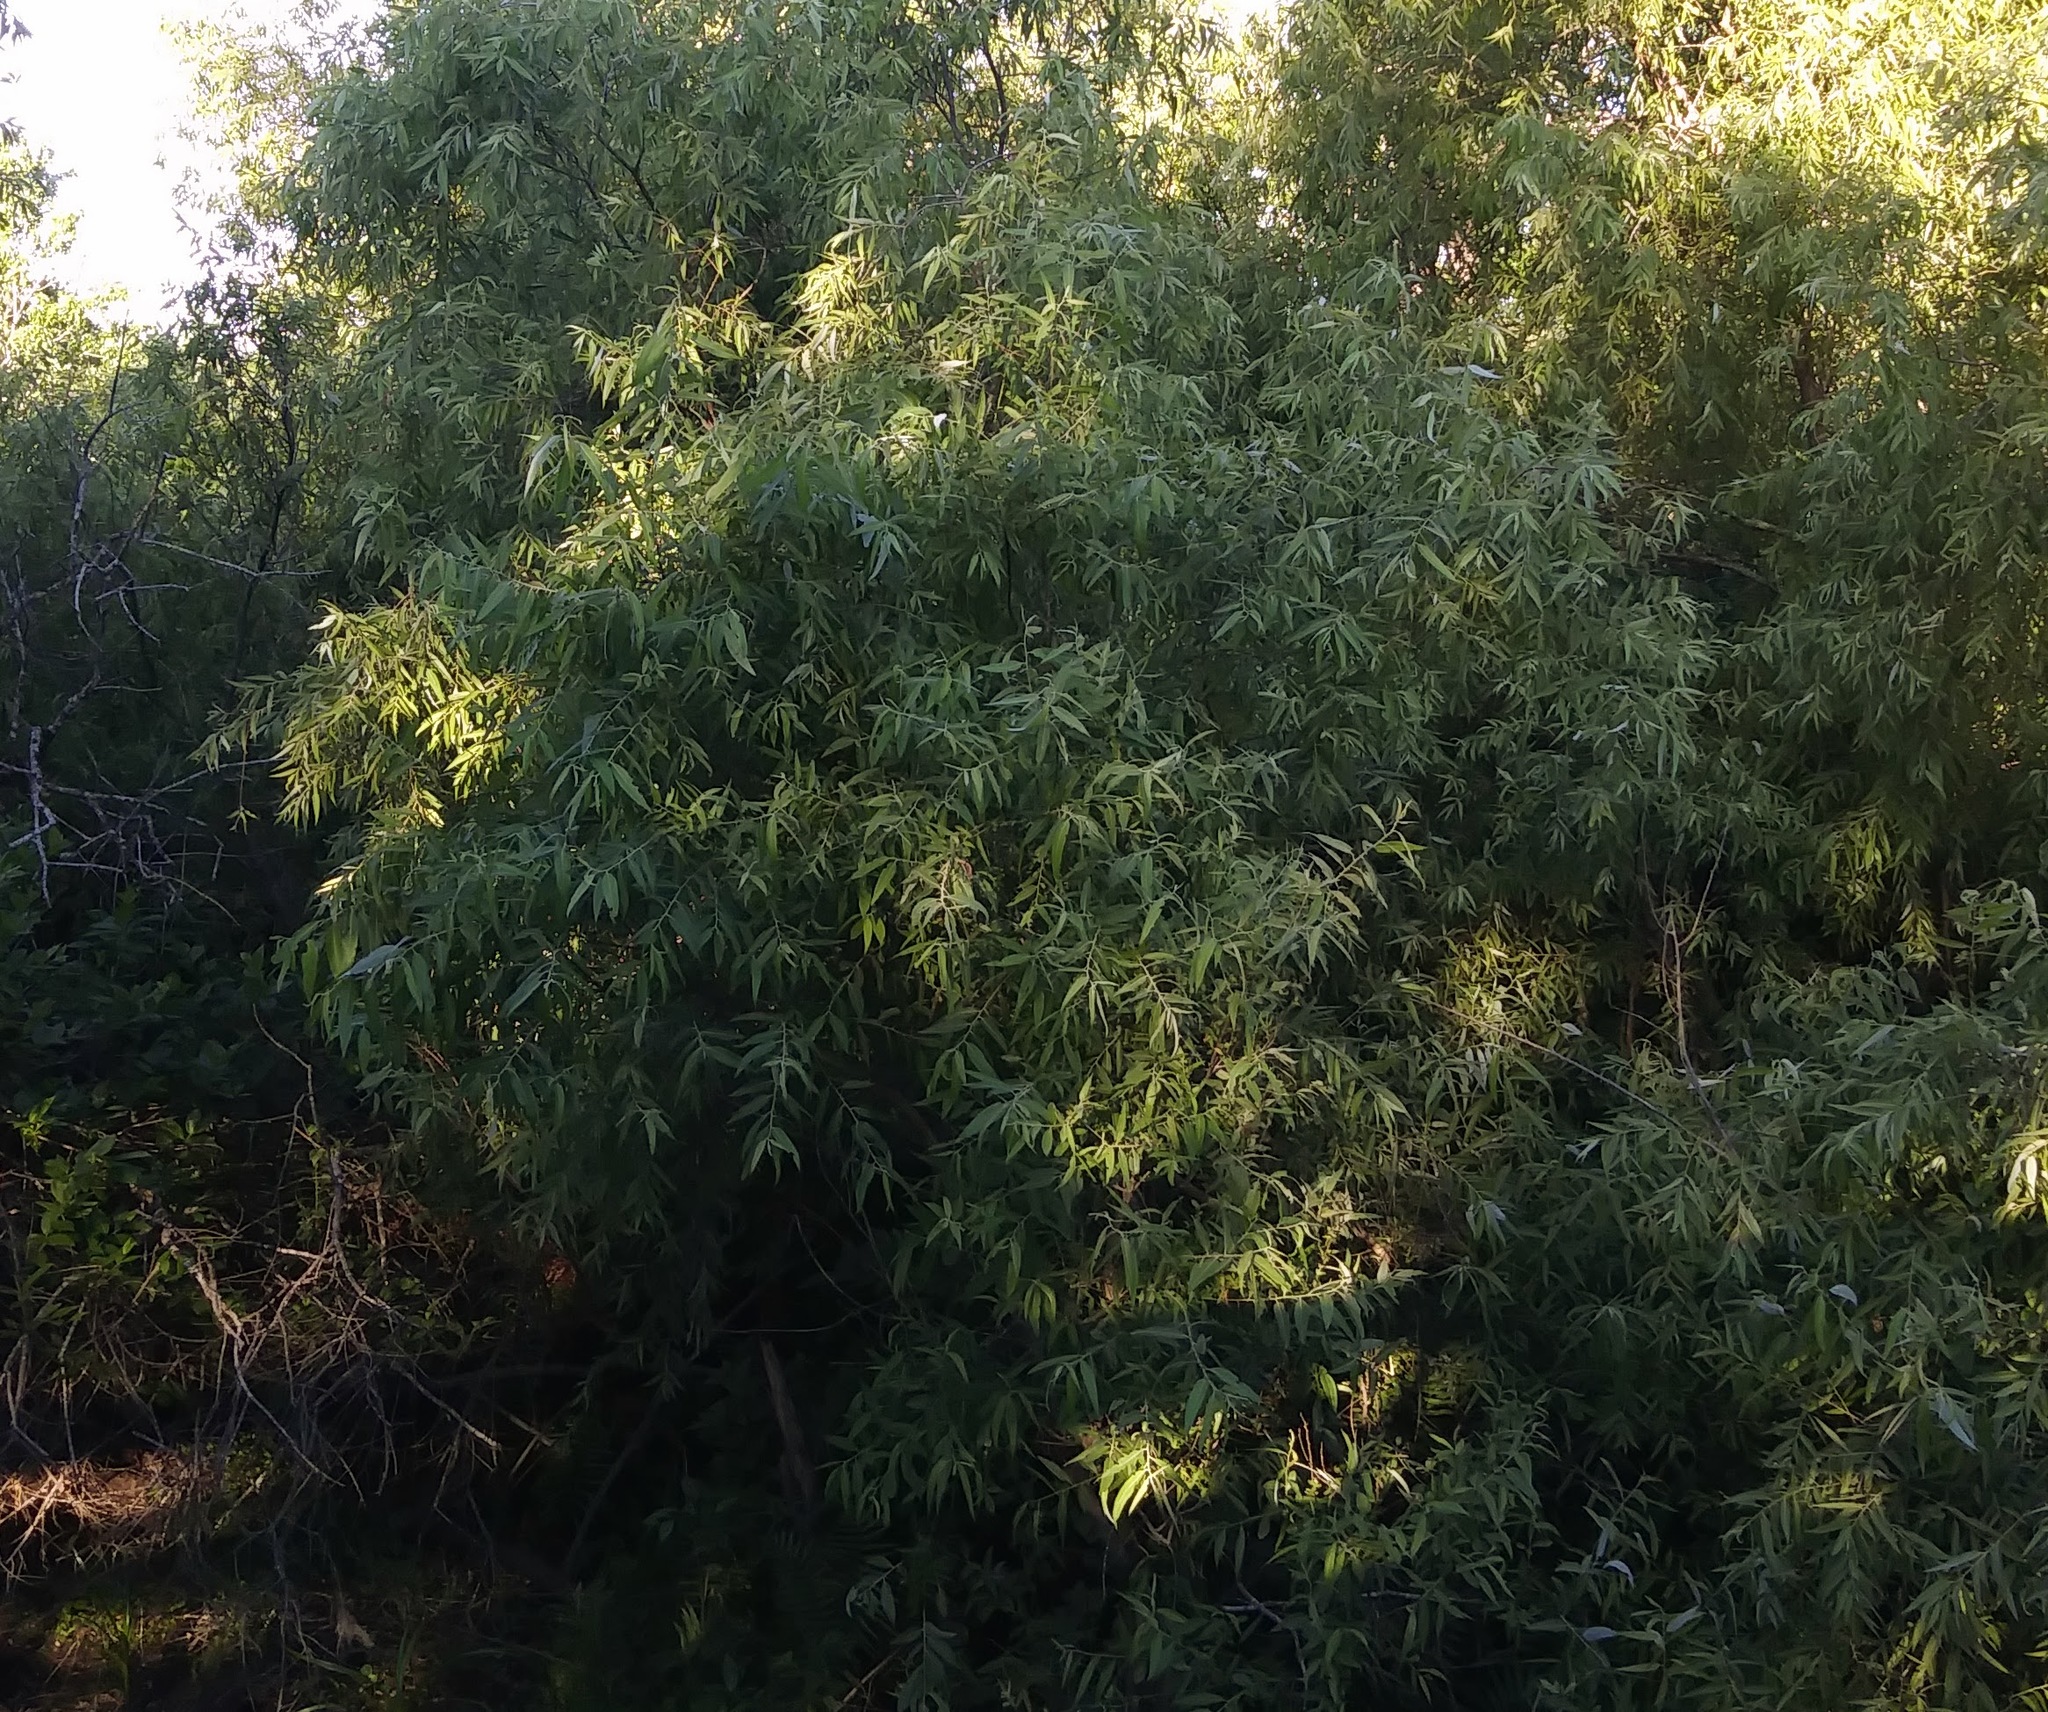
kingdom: Plantae
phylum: Tracheophyta
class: Magnoliopsida
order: Malpighiales
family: Salicaceae
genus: Salix
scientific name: Salix caroliniana
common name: Carolina willow
